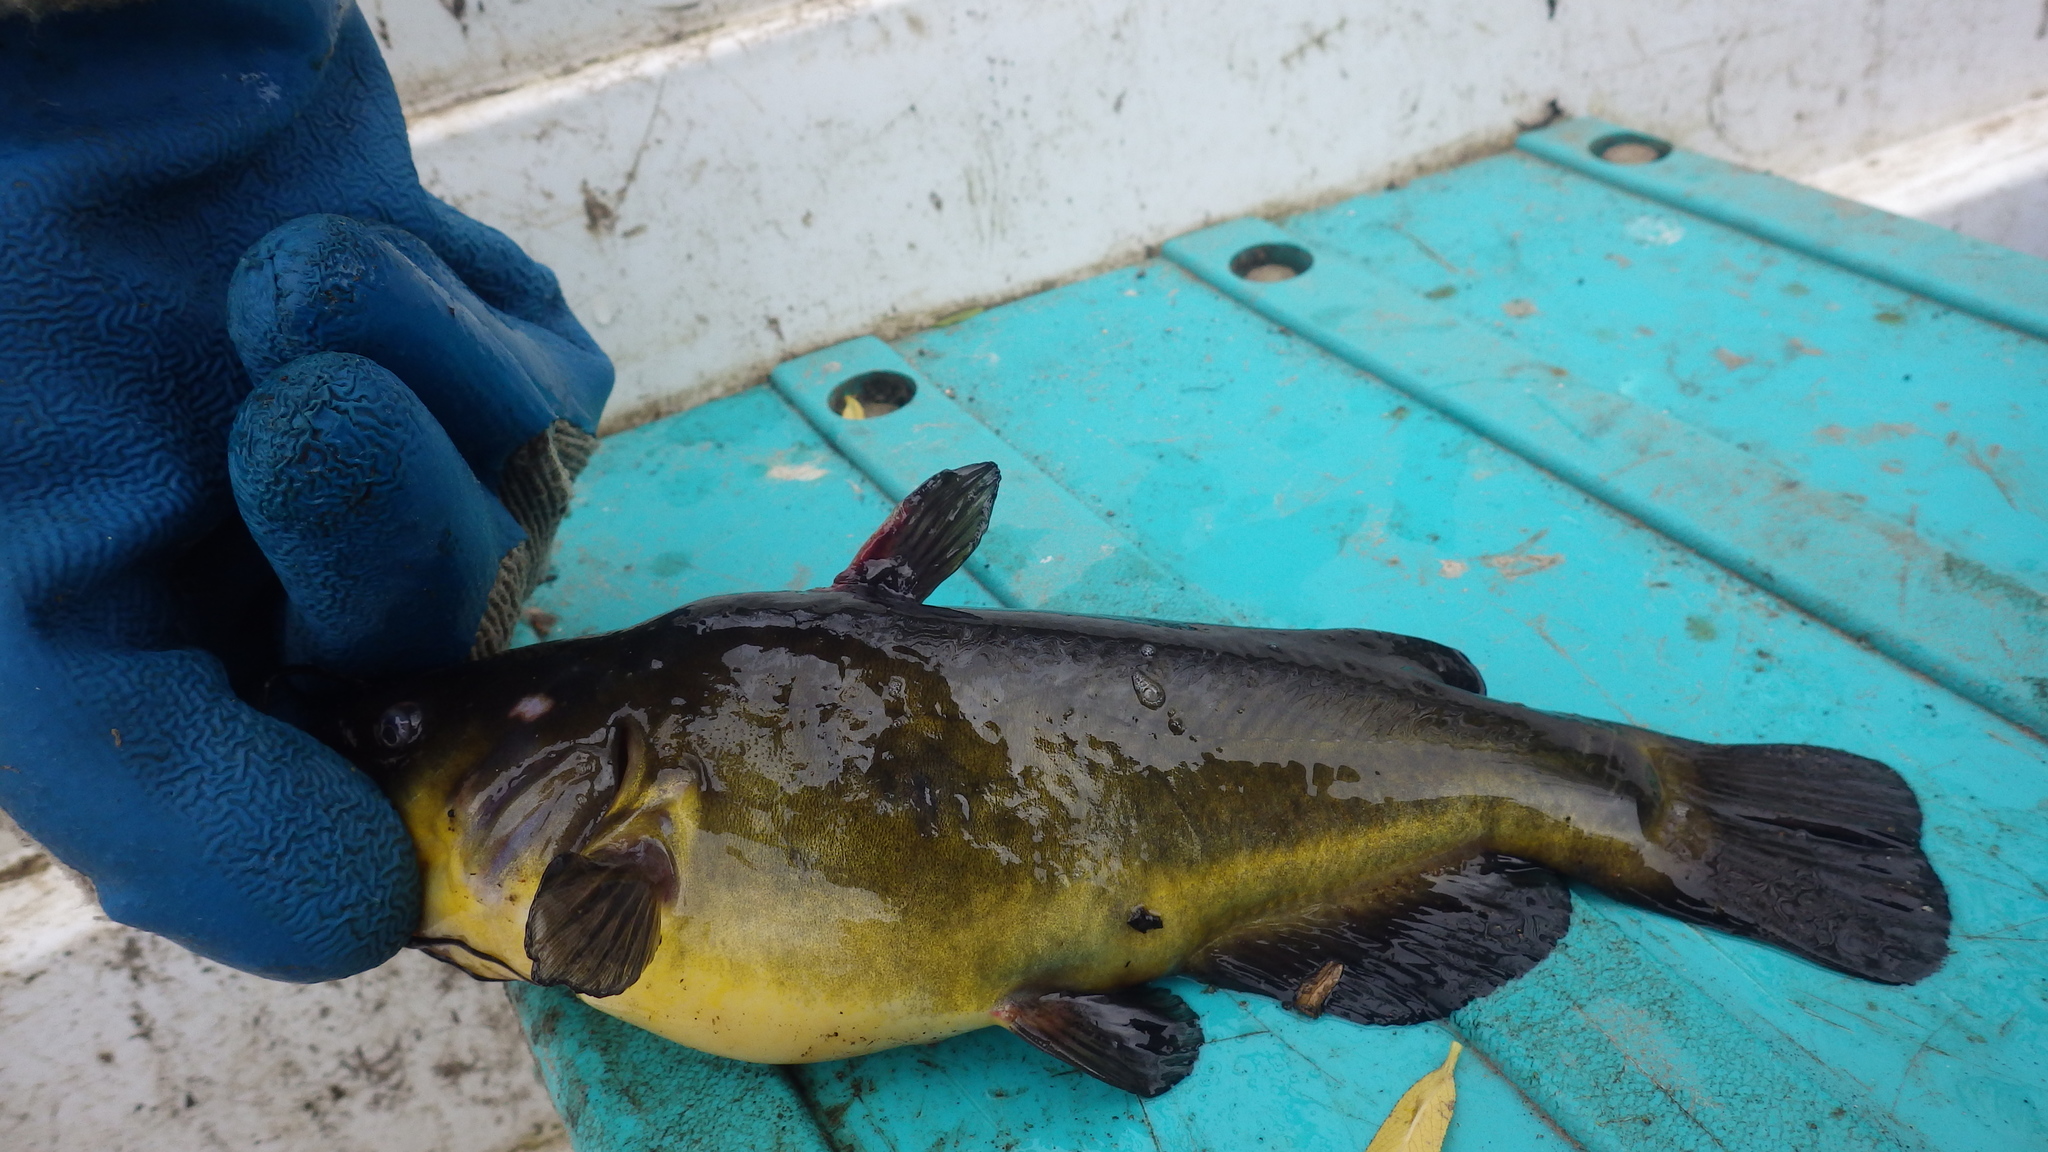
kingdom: Animalia
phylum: Chordata
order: Siluriformes
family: Ictaluridae
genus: Ameiurus
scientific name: Ameiurus melas
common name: Black bullhead
